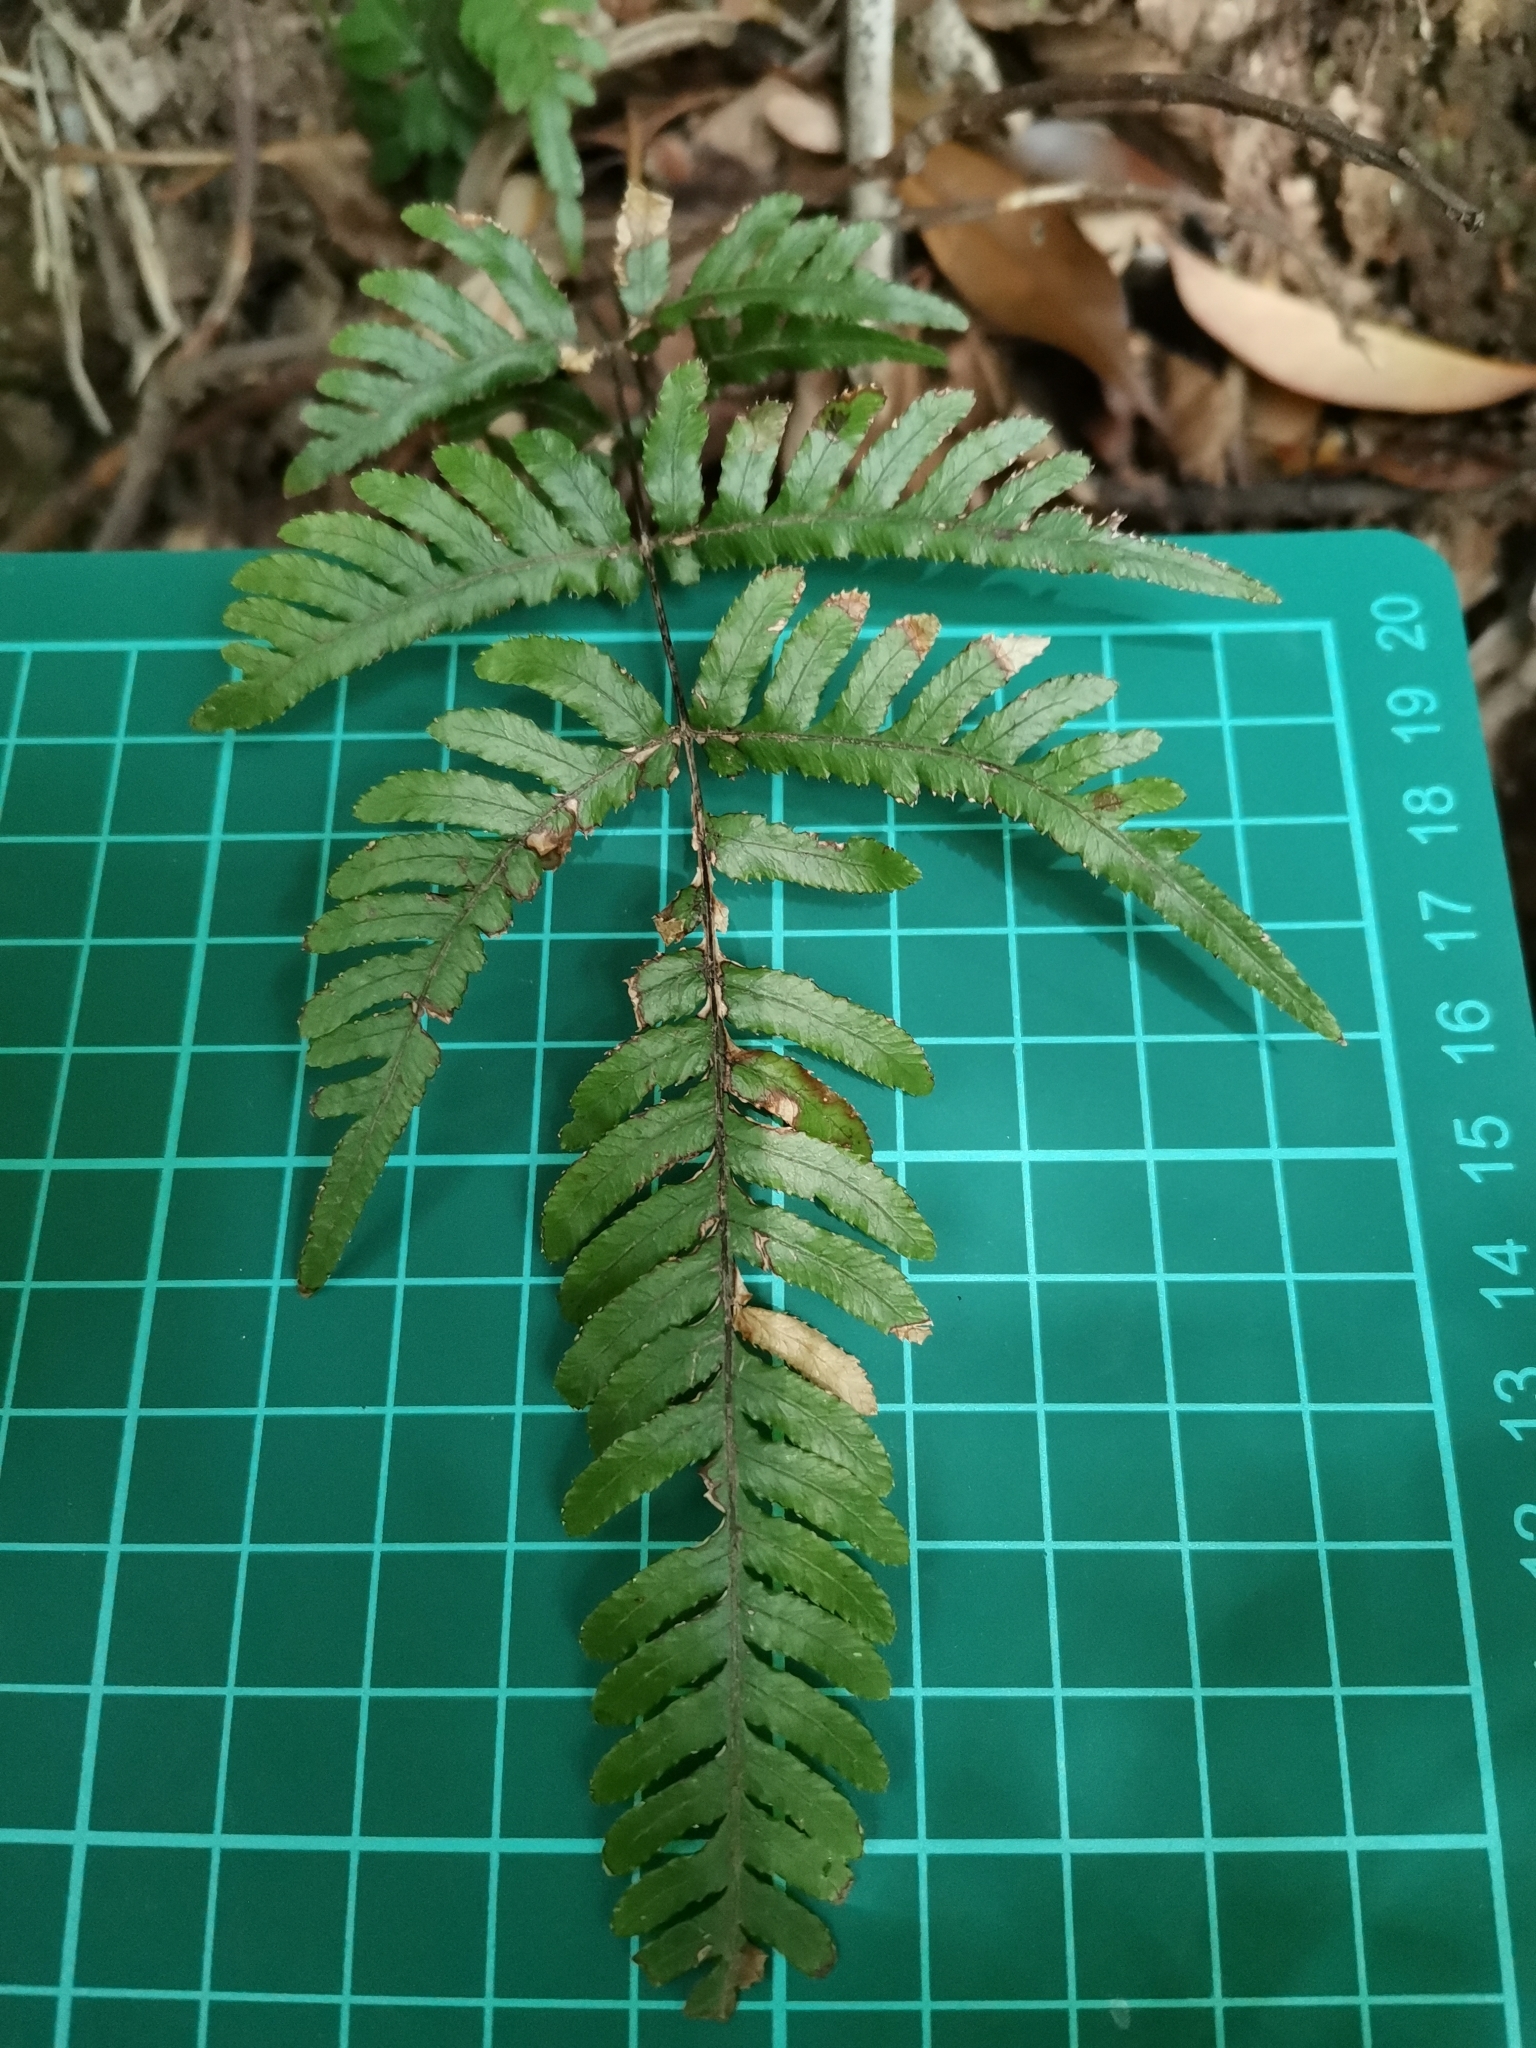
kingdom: Plantae
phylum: Tracheophyta
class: Polypodiopsida
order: Polypodiales
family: Pteridaceae
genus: Pteris
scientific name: Pteris dispar
